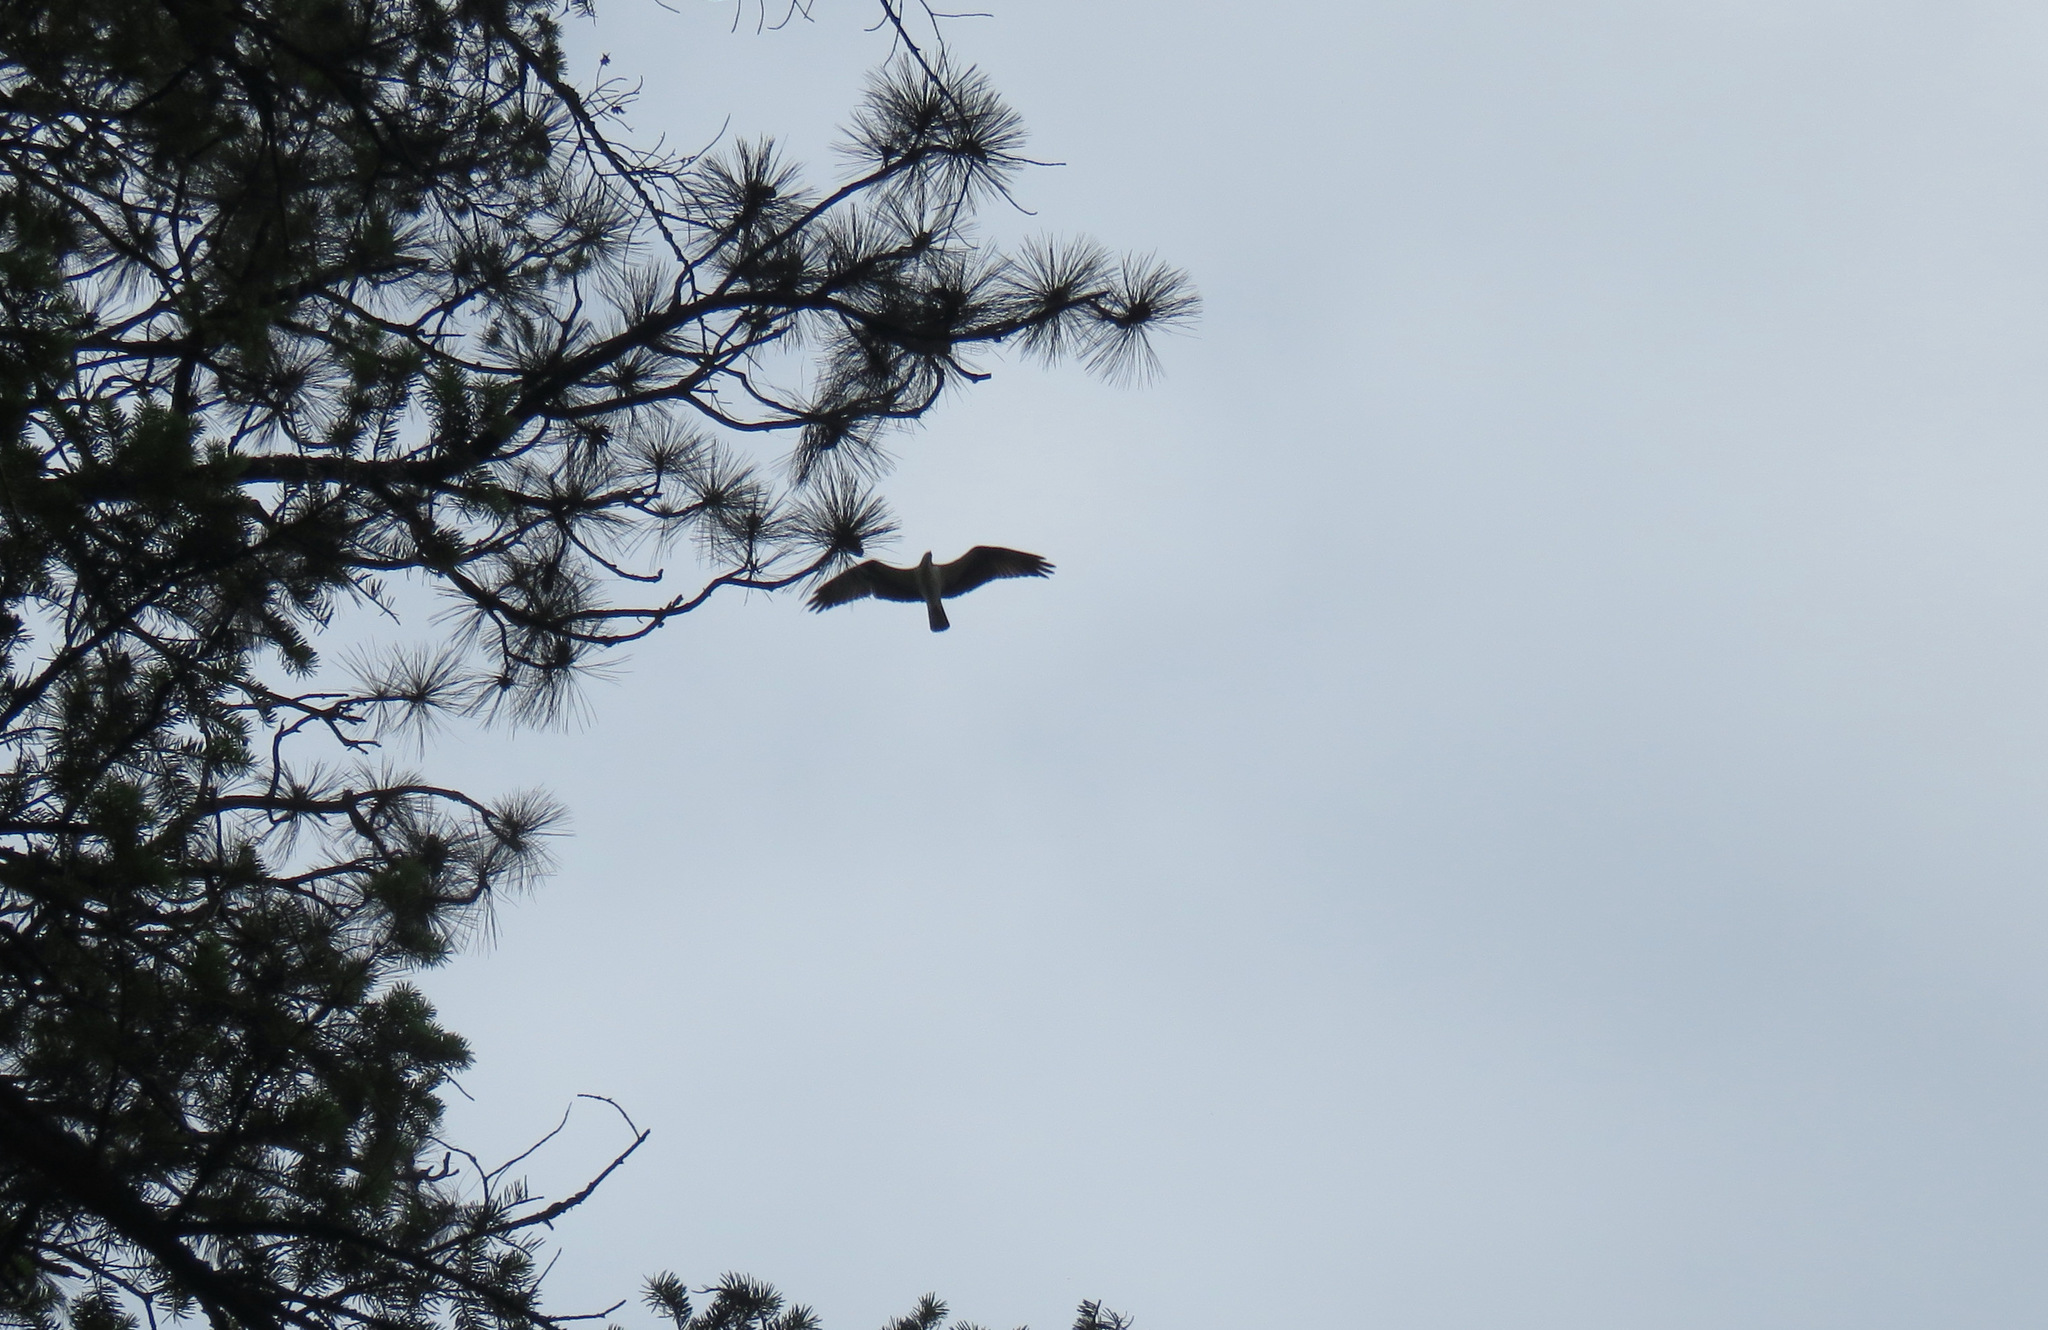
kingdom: Animalia
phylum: Chordata
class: Aves
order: Accipitriformes
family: Pandionidae
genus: Pandion
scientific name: Pandion haliaetus
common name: Osprey
